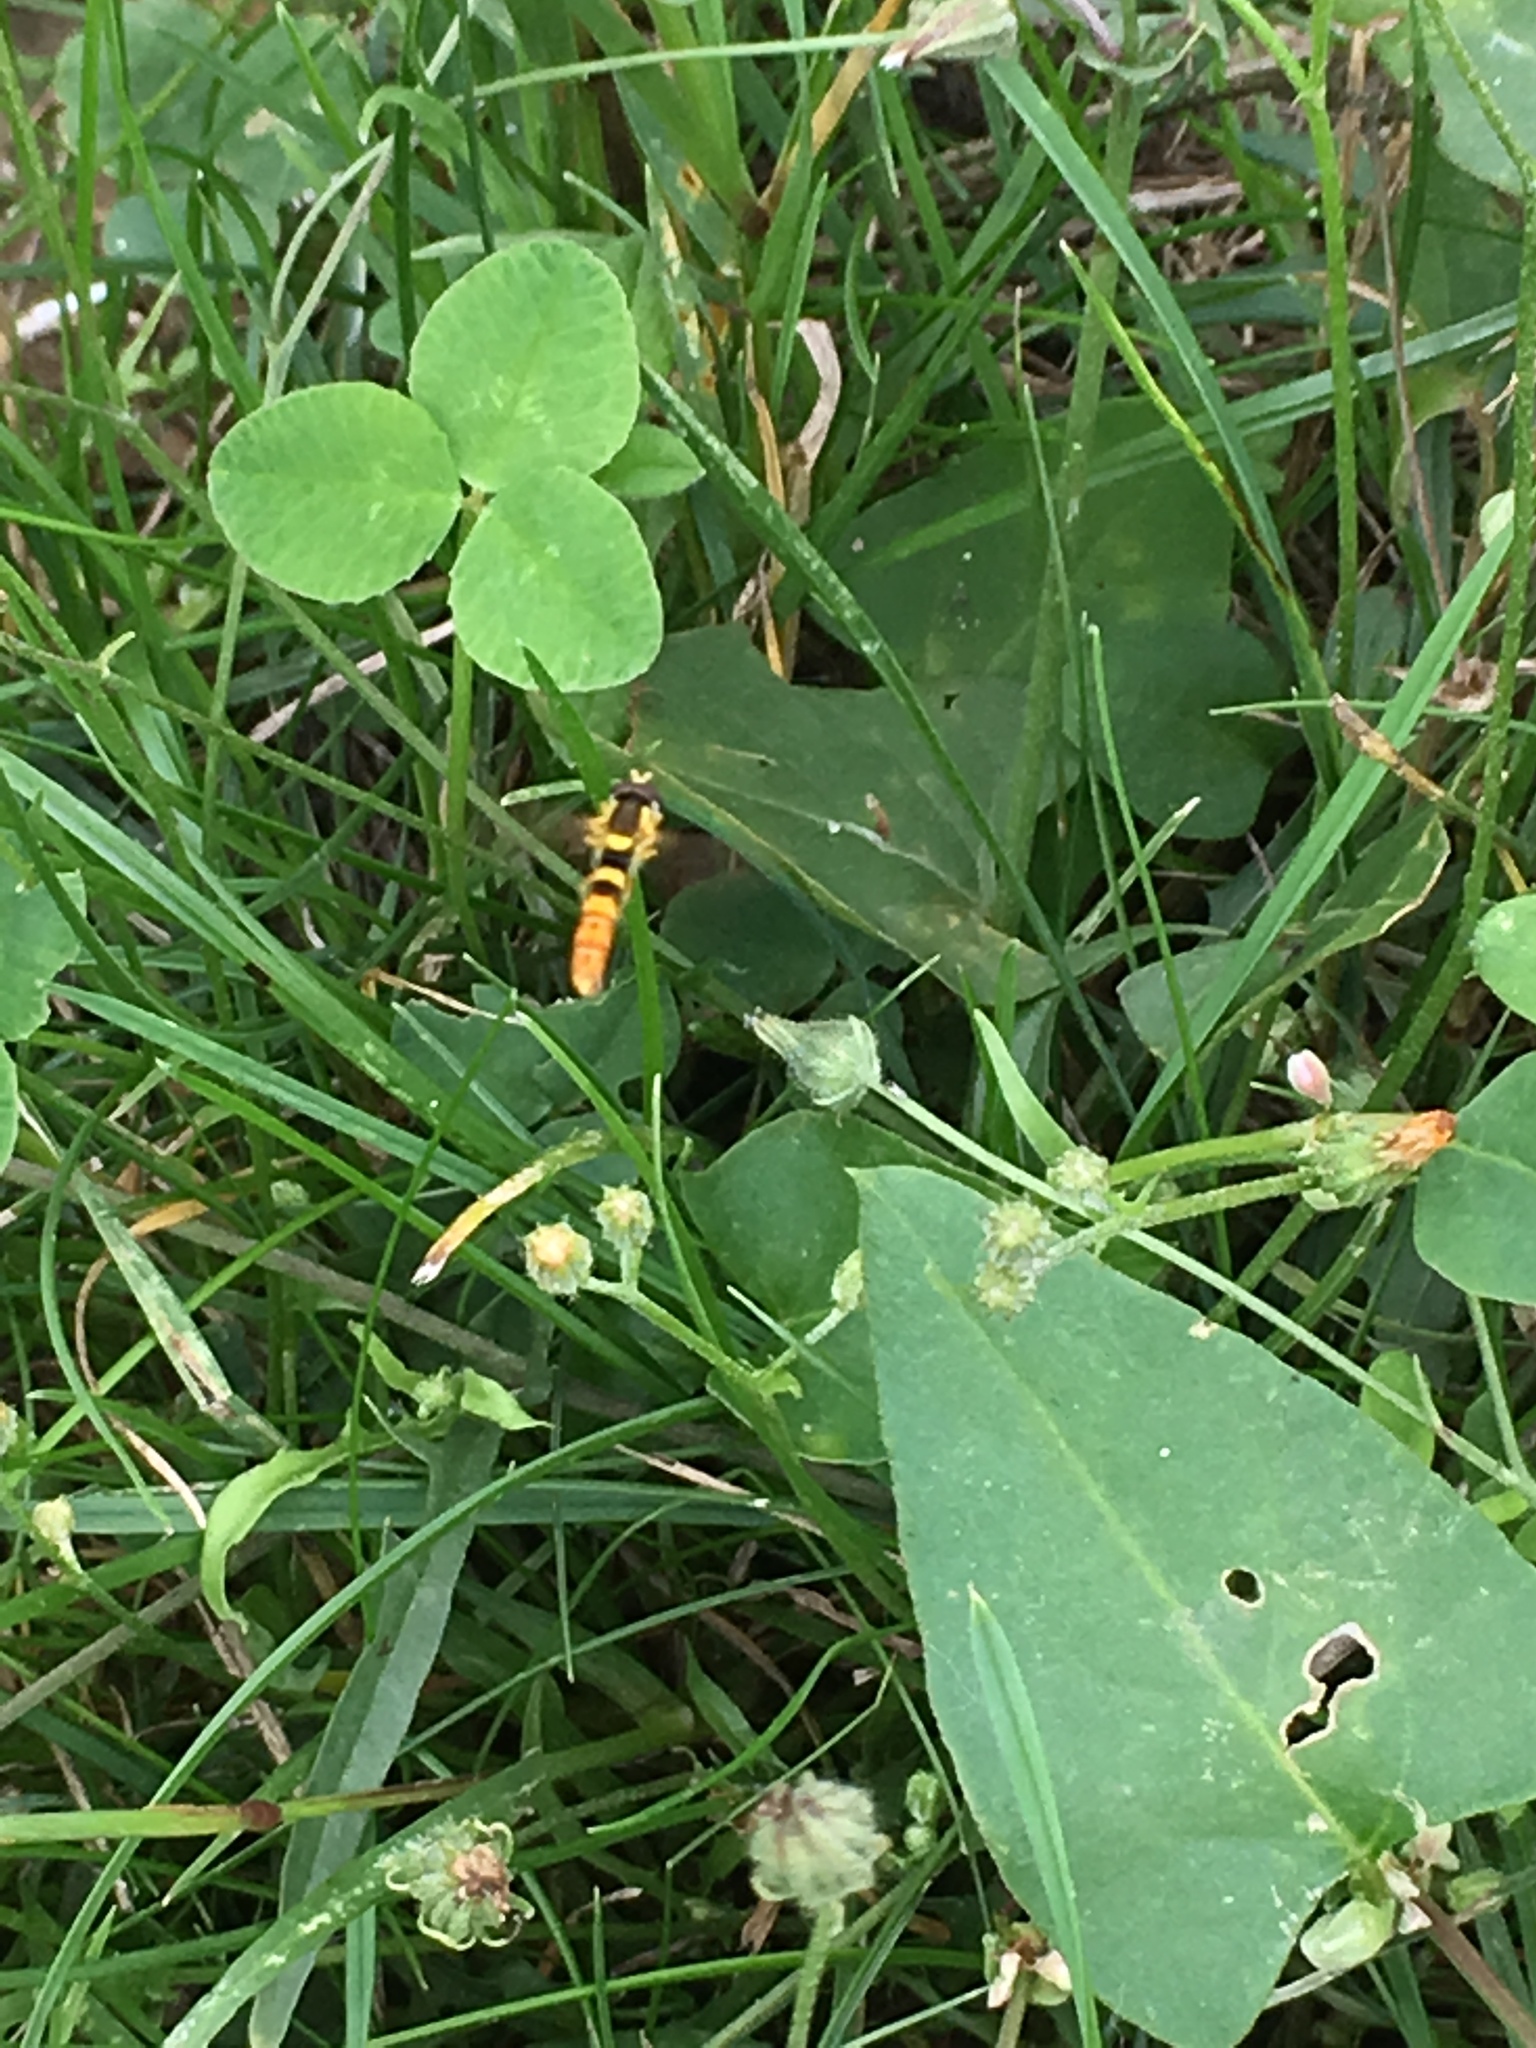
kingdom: Animalia
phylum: Arthropoda
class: Insecta
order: Diptera
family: Syrphidae
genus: Sphaerophoria
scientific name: Sphaerophoria scripta
